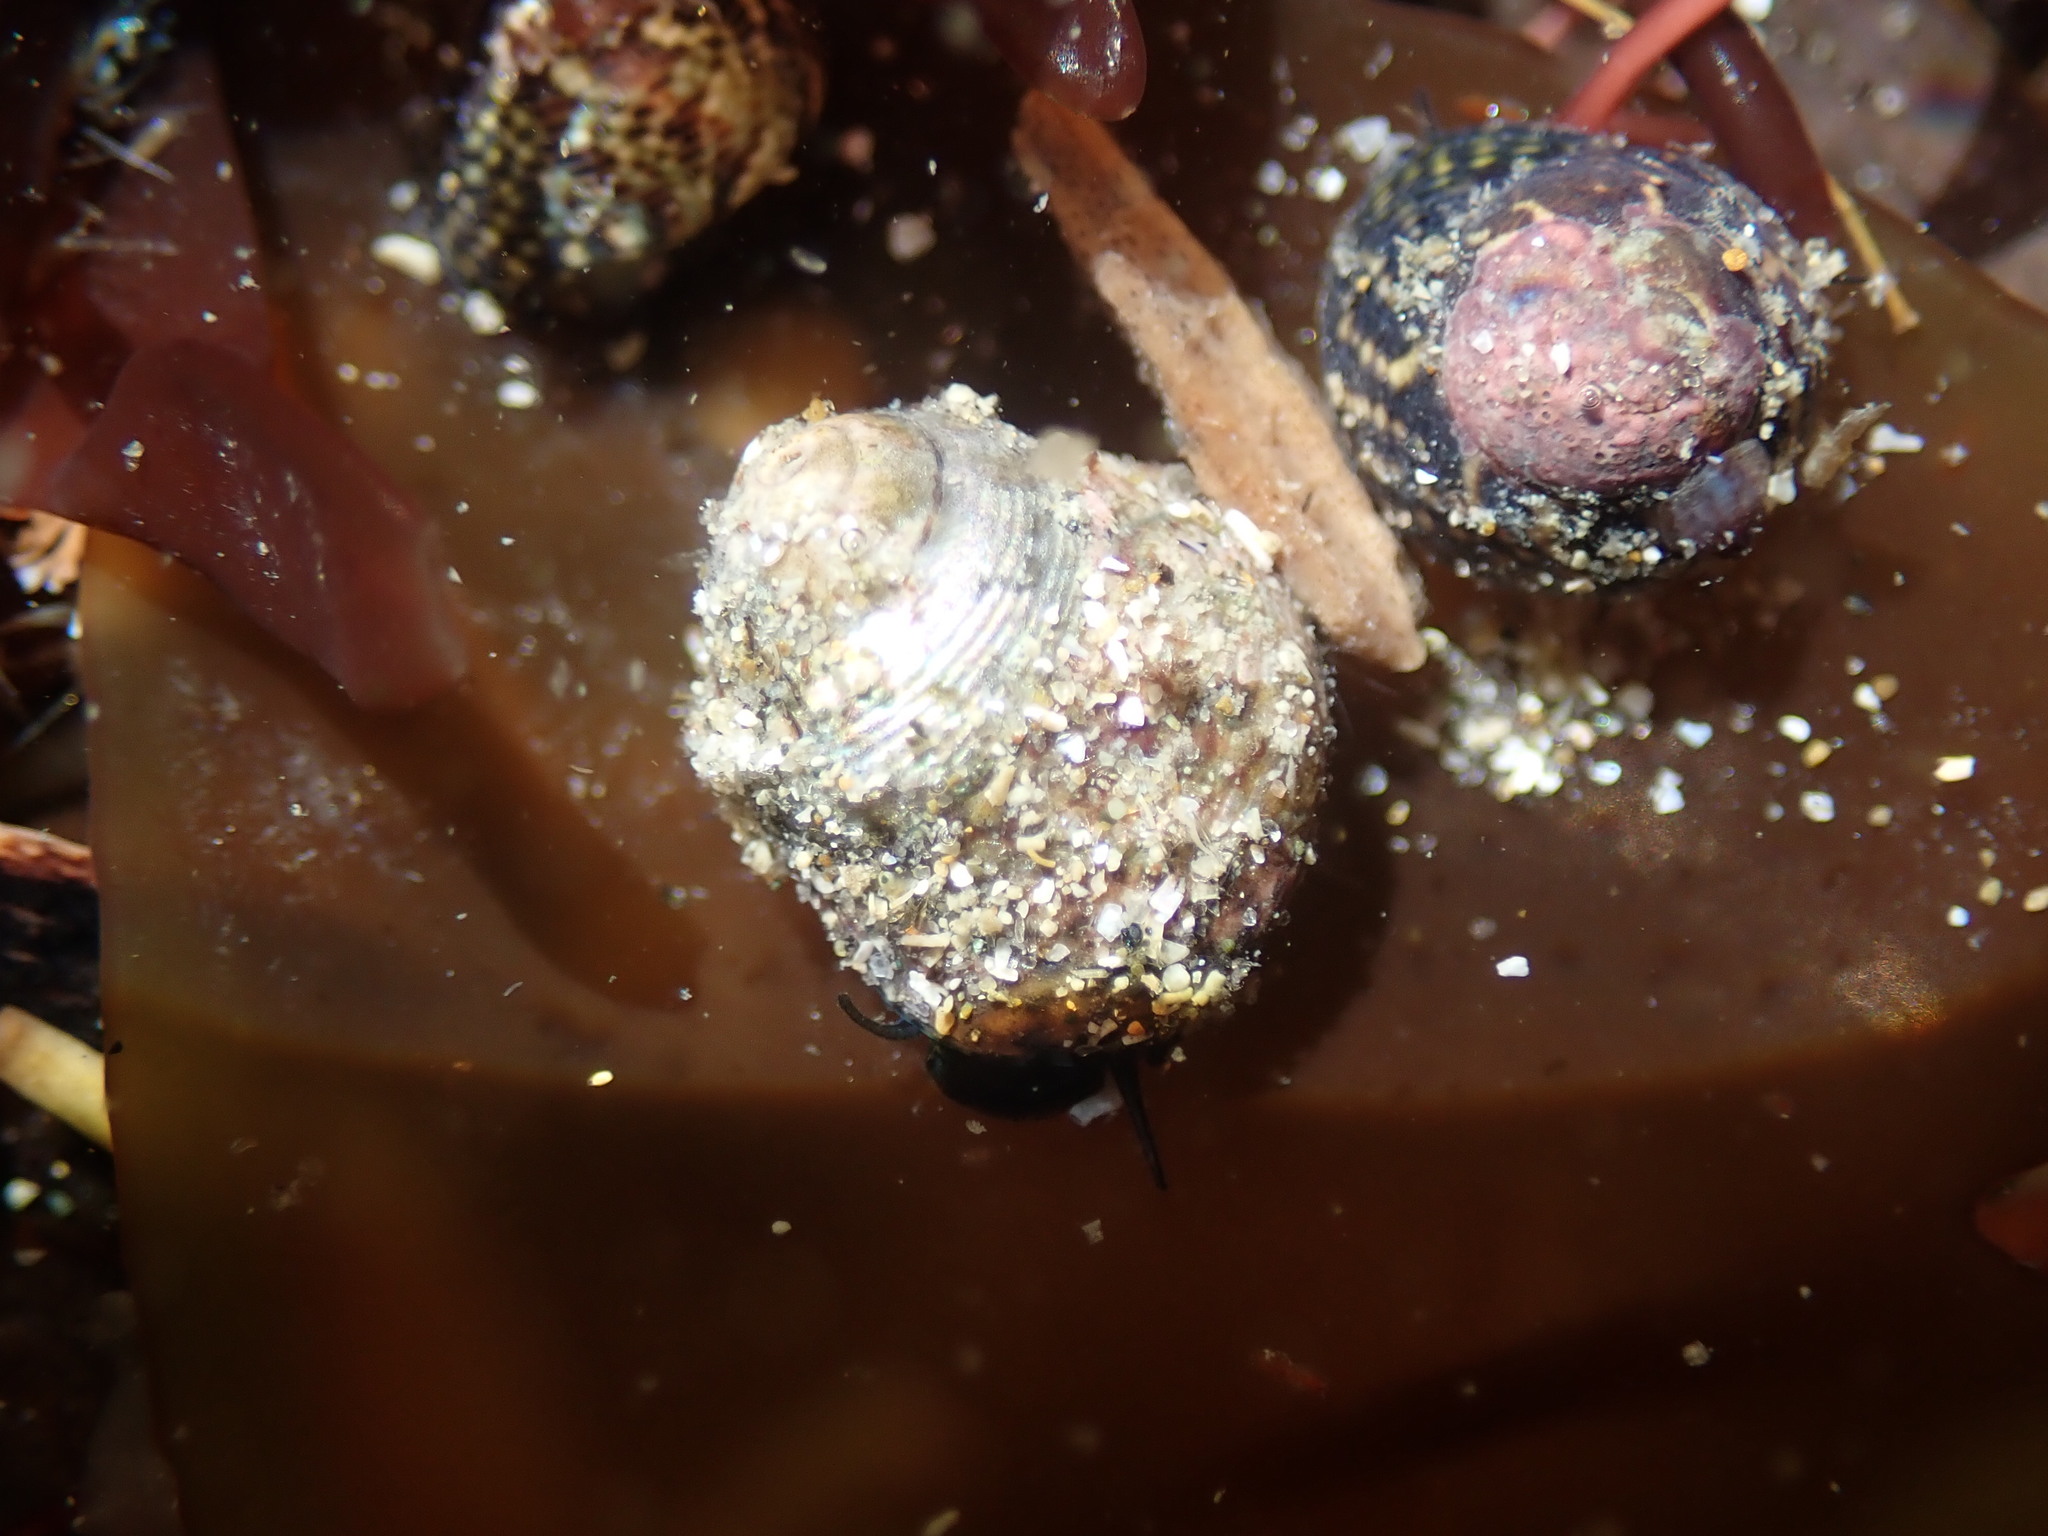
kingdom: Animalia
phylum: Mollusca
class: Gastropoda
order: Trochida
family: Trochidae
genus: Micrelenchus
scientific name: Micrelenchus tessellatus
